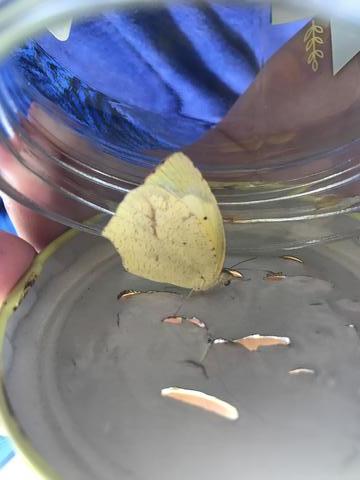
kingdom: Animalia
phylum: Arthropoda
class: Insecta
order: Lepidoptera
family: Pieridae
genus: Abaeis
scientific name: Abaeis mexicana
